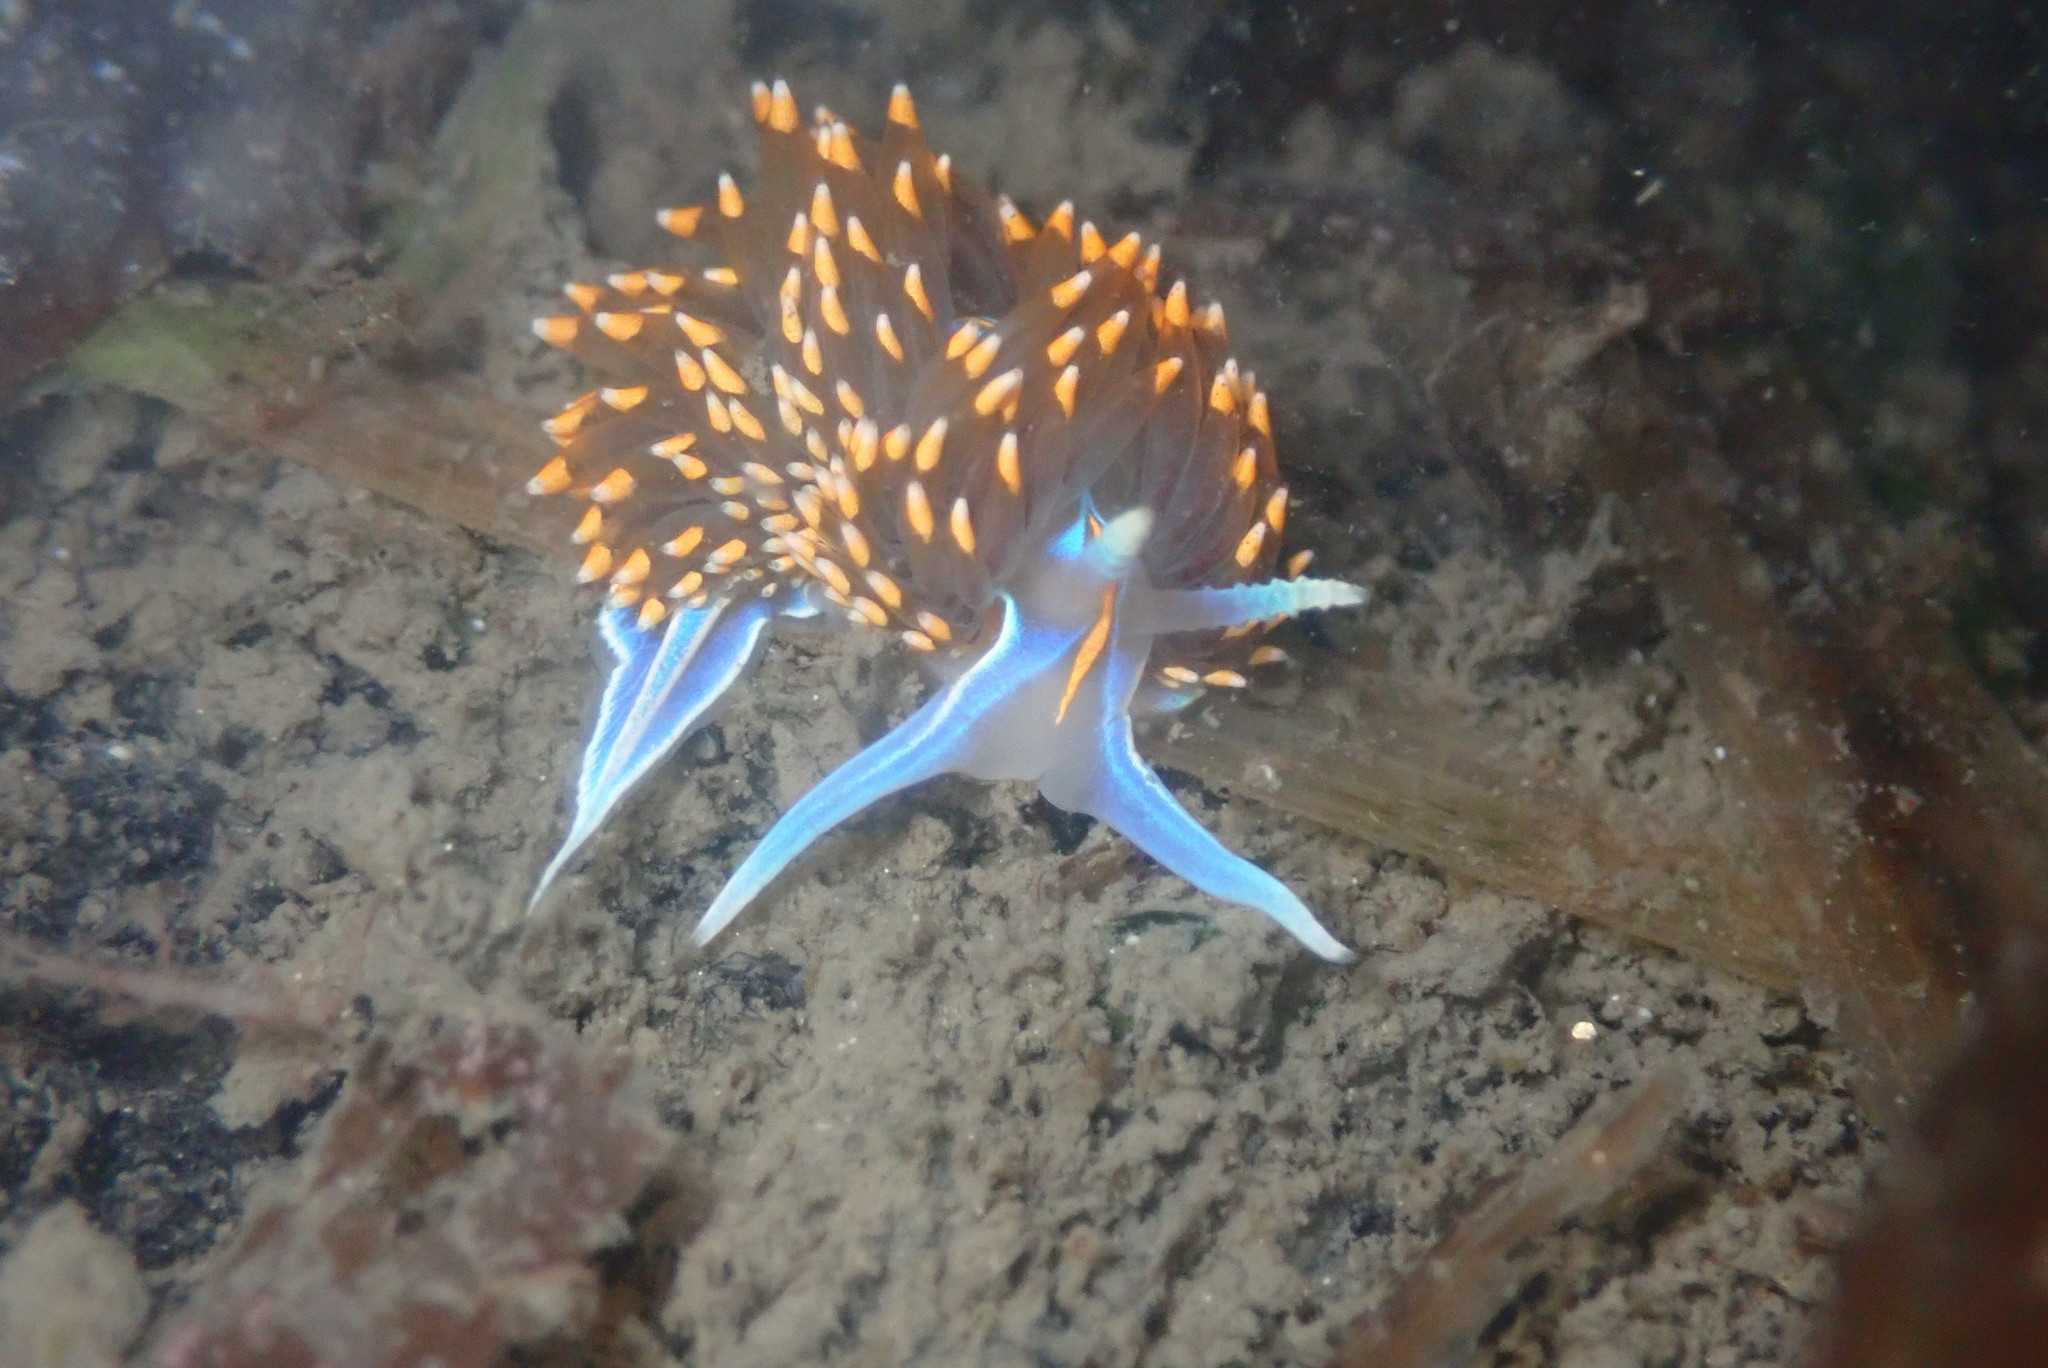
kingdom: Animalia
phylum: Mollusca
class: Gastropoda
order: Nudibranchia
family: Myrrhinidae
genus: Hermissenda
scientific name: Hermissenda opalescens
